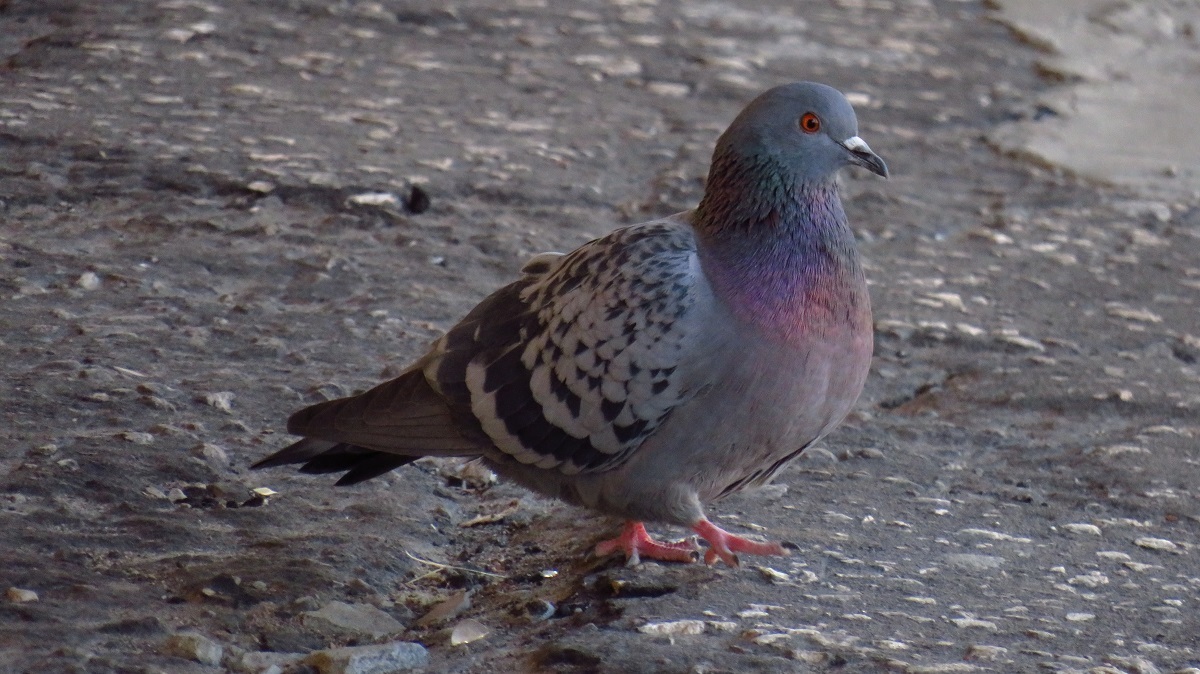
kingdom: Animalia
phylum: Chordata
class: Aves
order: Columbiformes
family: Columbidae
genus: Columba
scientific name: Columba livia
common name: Rock pigeon
